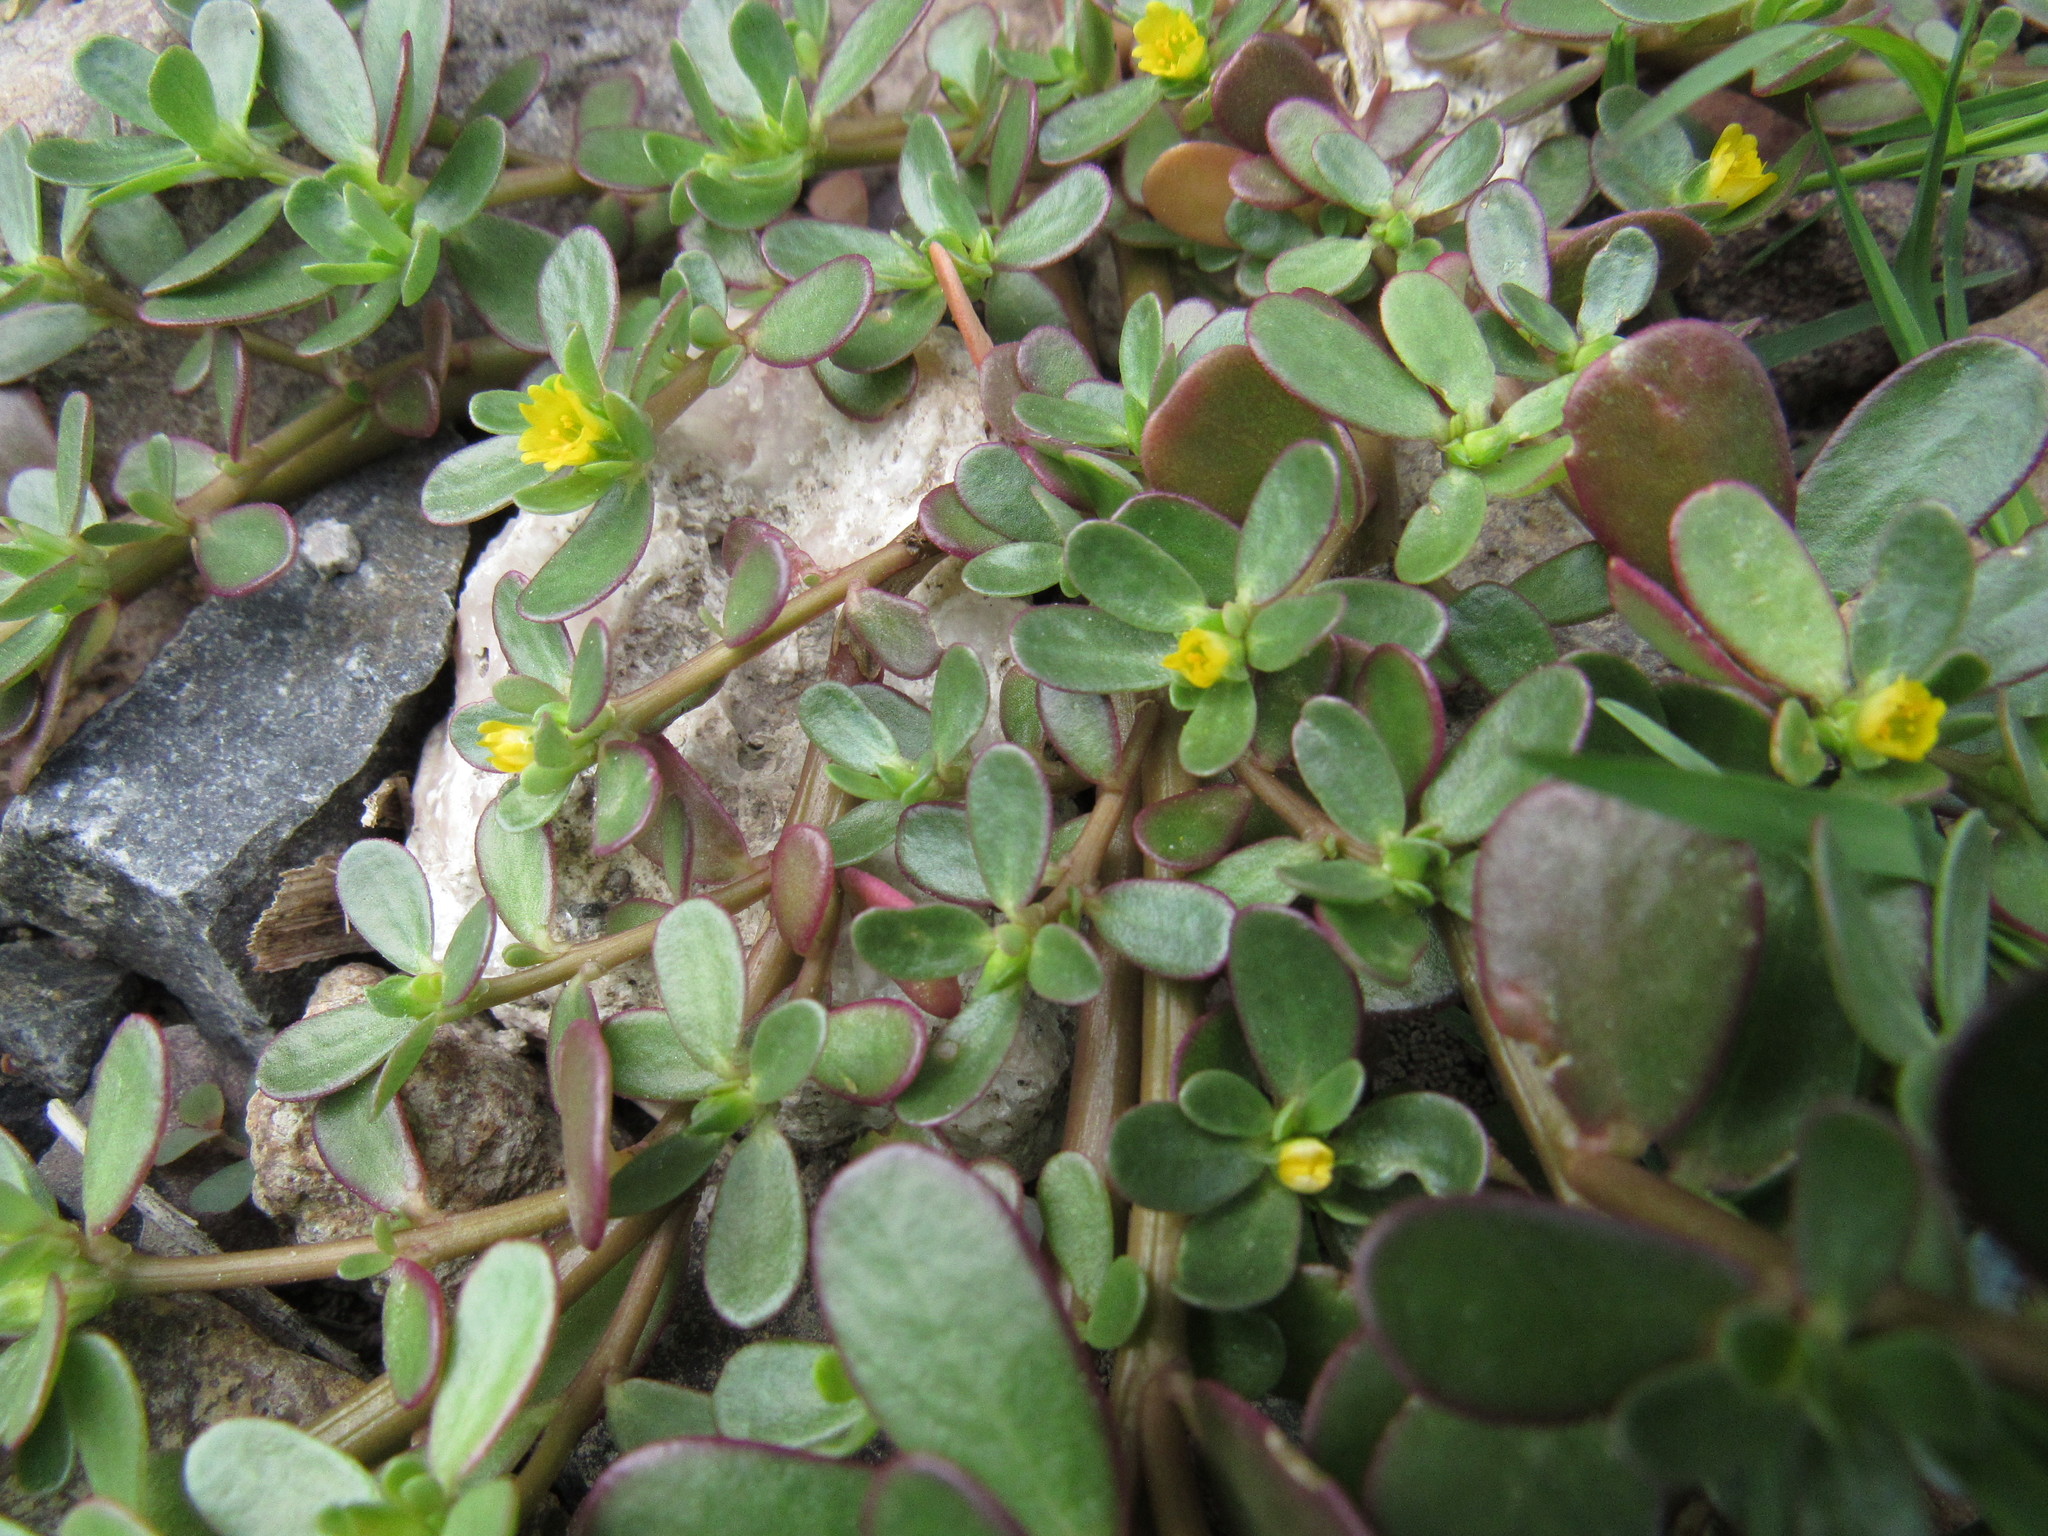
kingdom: Plantae
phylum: Tracheophyta
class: Magnoliopsida
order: Caryophyllales
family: Portulacaceae
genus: Portulaca
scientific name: Portulaca oleracea
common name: Common purslane
